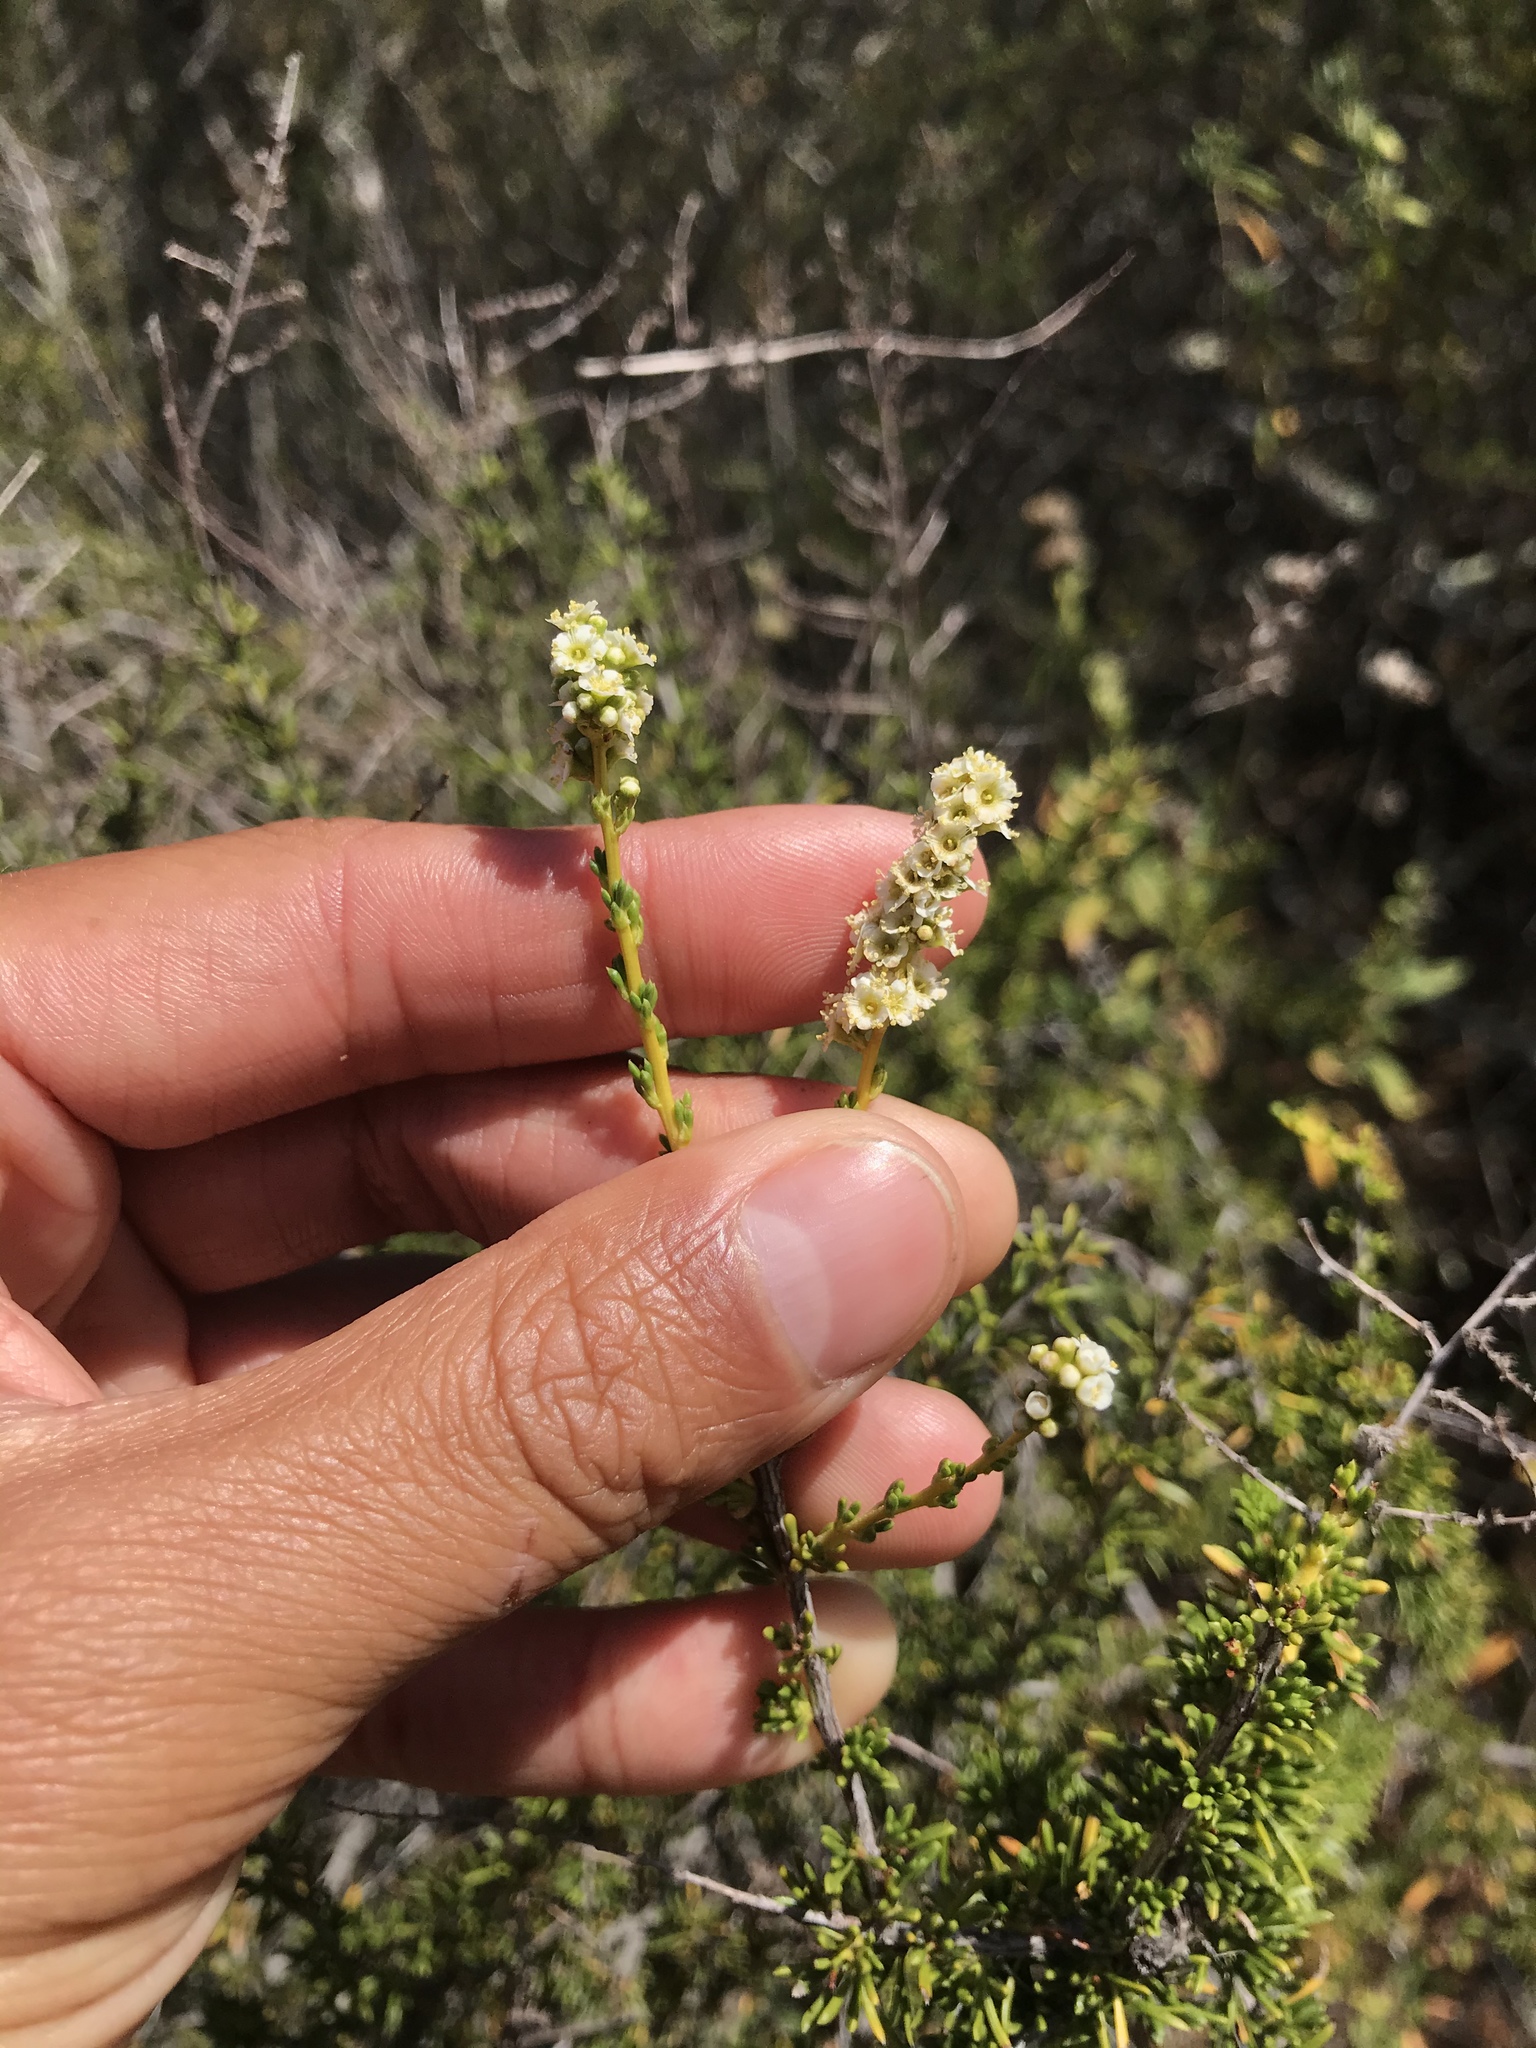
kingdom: Plantae
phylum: Tracheophyta
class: Magnoliopsida
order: Rosales
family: Rosaceae
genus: Adenostoma
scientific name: Adenostoma fasciculatum
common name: Chamise
